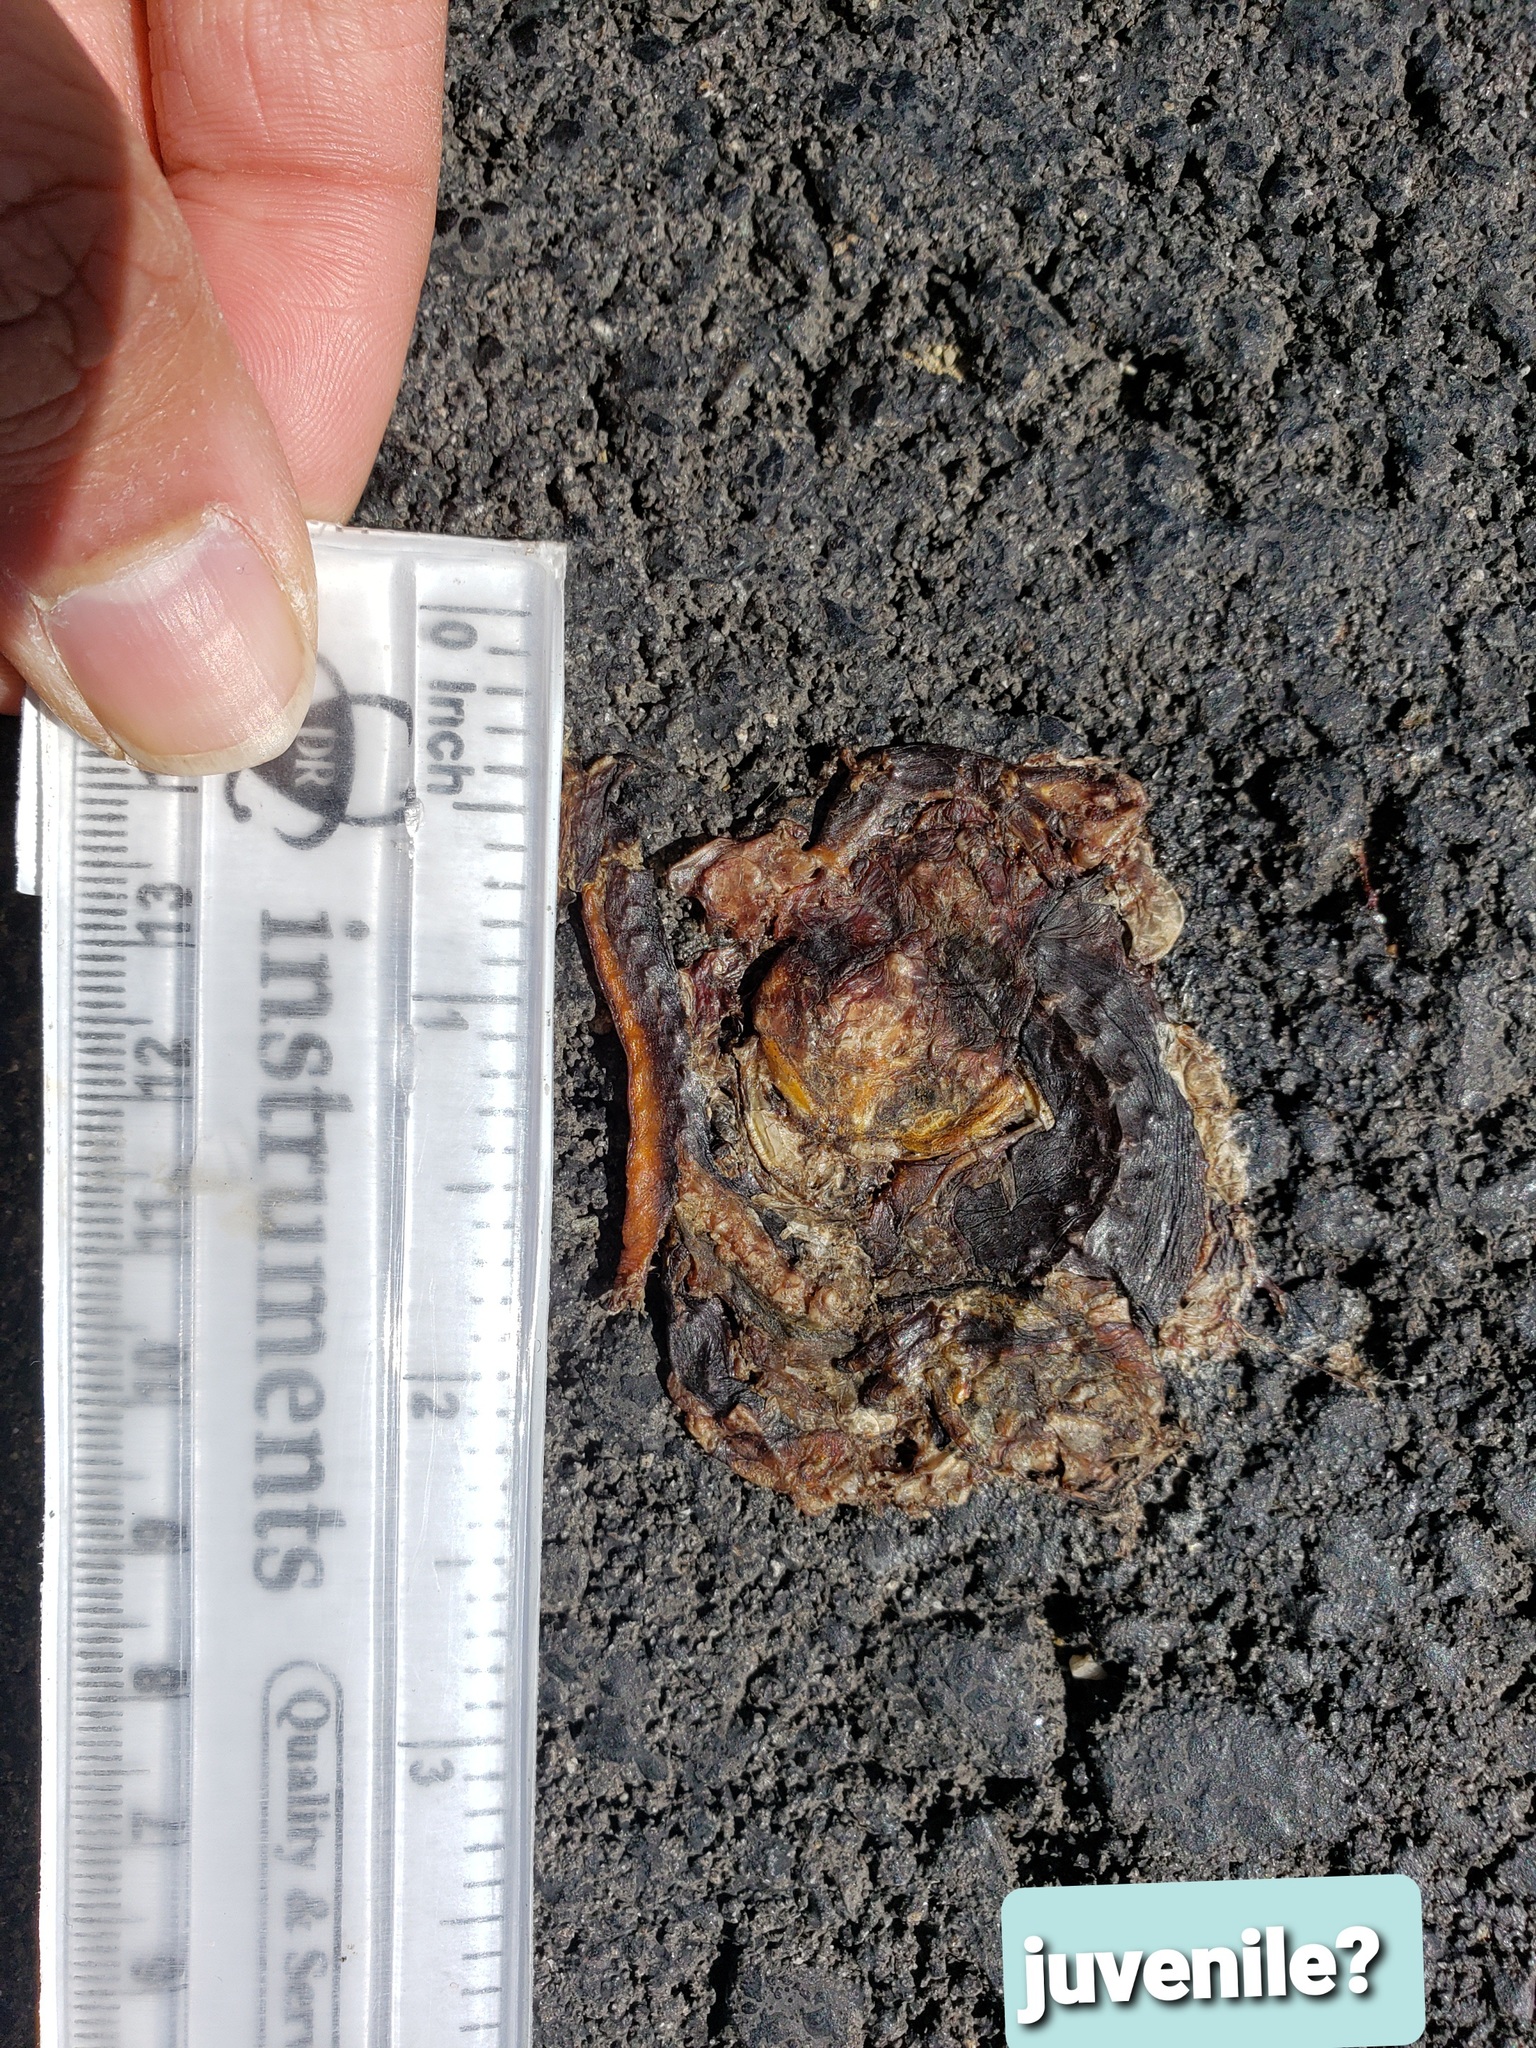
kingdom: Animalia
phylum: Chordata
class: Amphibia
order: Caudata
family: Salamandridae
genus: Taricha
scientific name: Taricha
